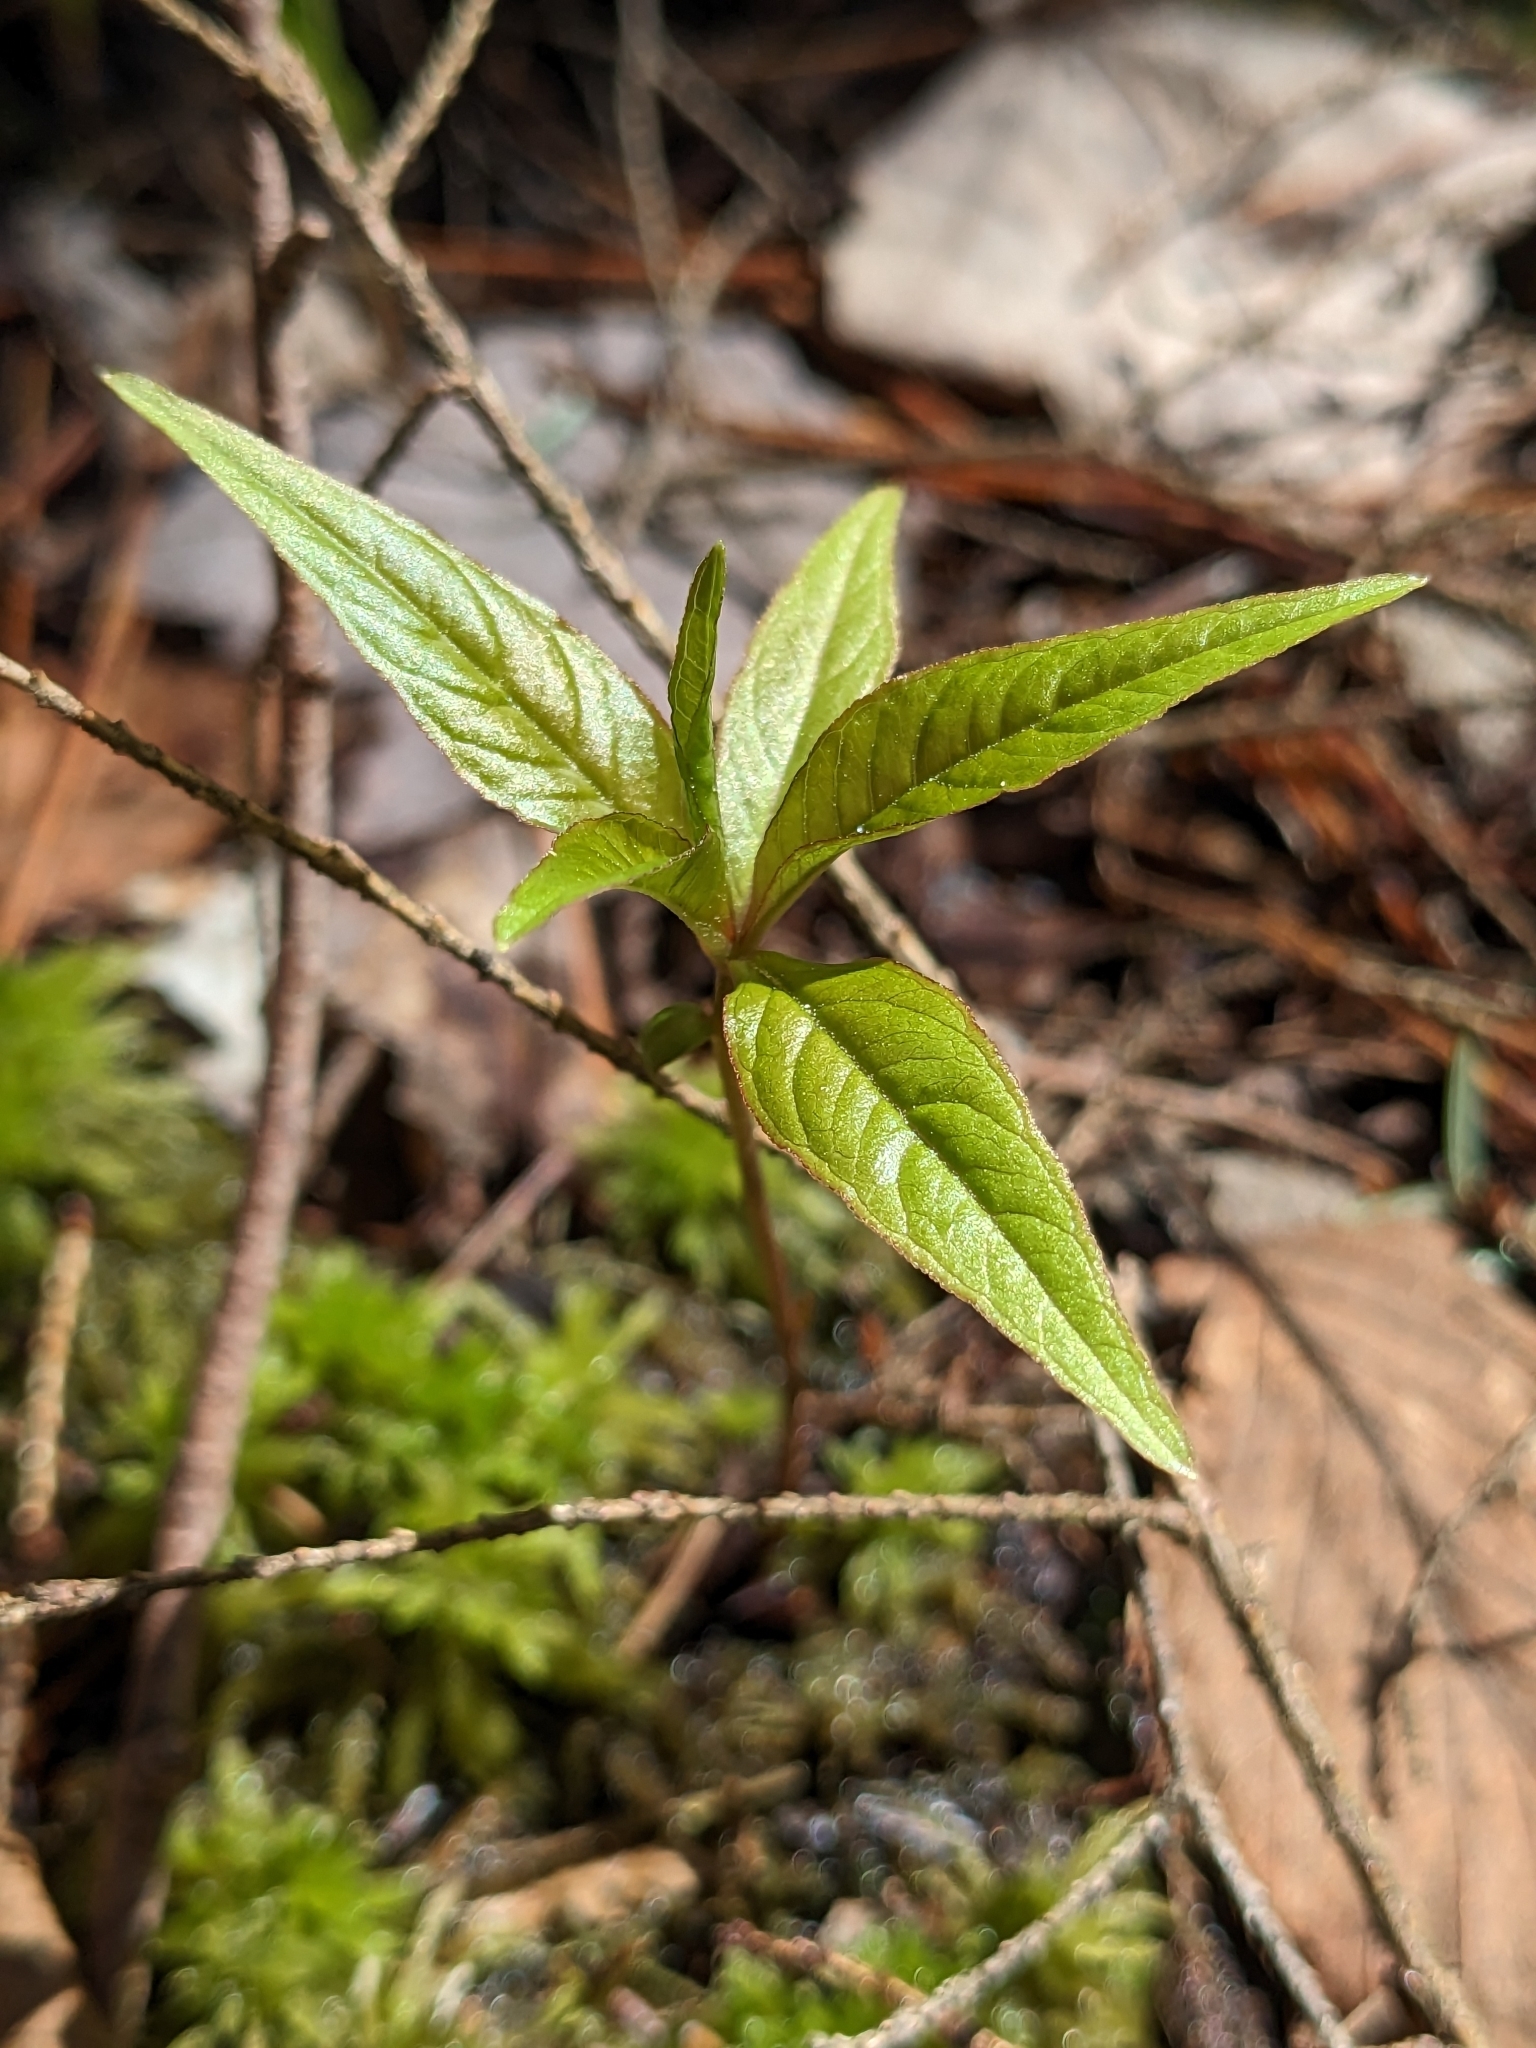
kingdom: Plantae
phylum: Tracheophyta
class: Magnoliopsida
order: Ericales
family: Primulaceae
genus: Lysimachia
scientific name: Lysimachia borealis
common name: American starflower
